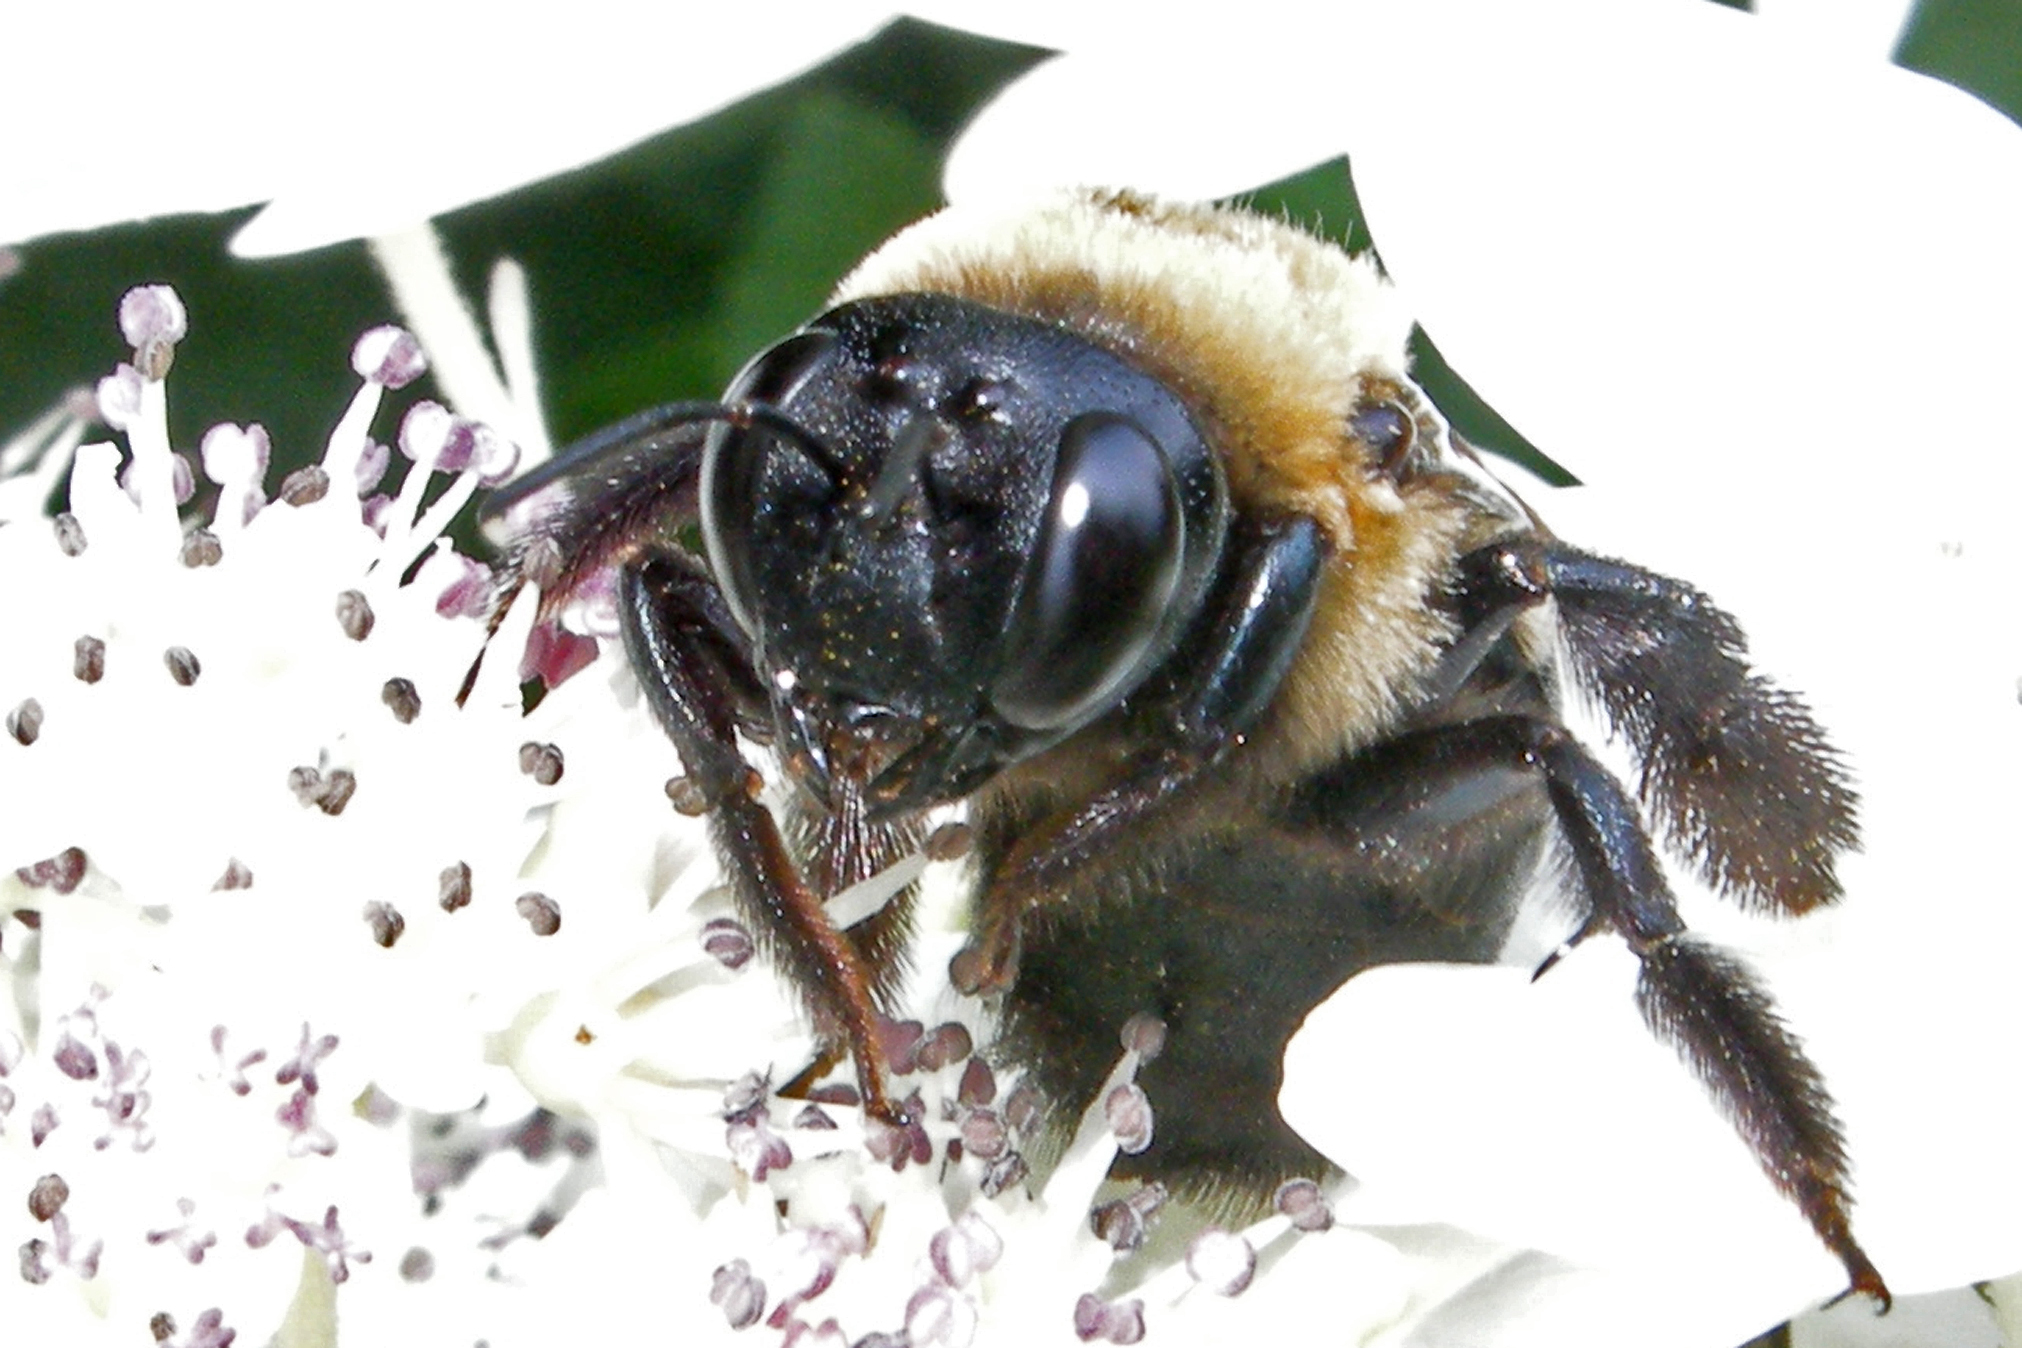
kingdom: Animalia
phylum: Arthropoda
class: Insecta
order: Hymenoptera
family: Apidae
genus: Xylocopa
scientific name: Xylocopa virginica
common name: Carpenter bee
